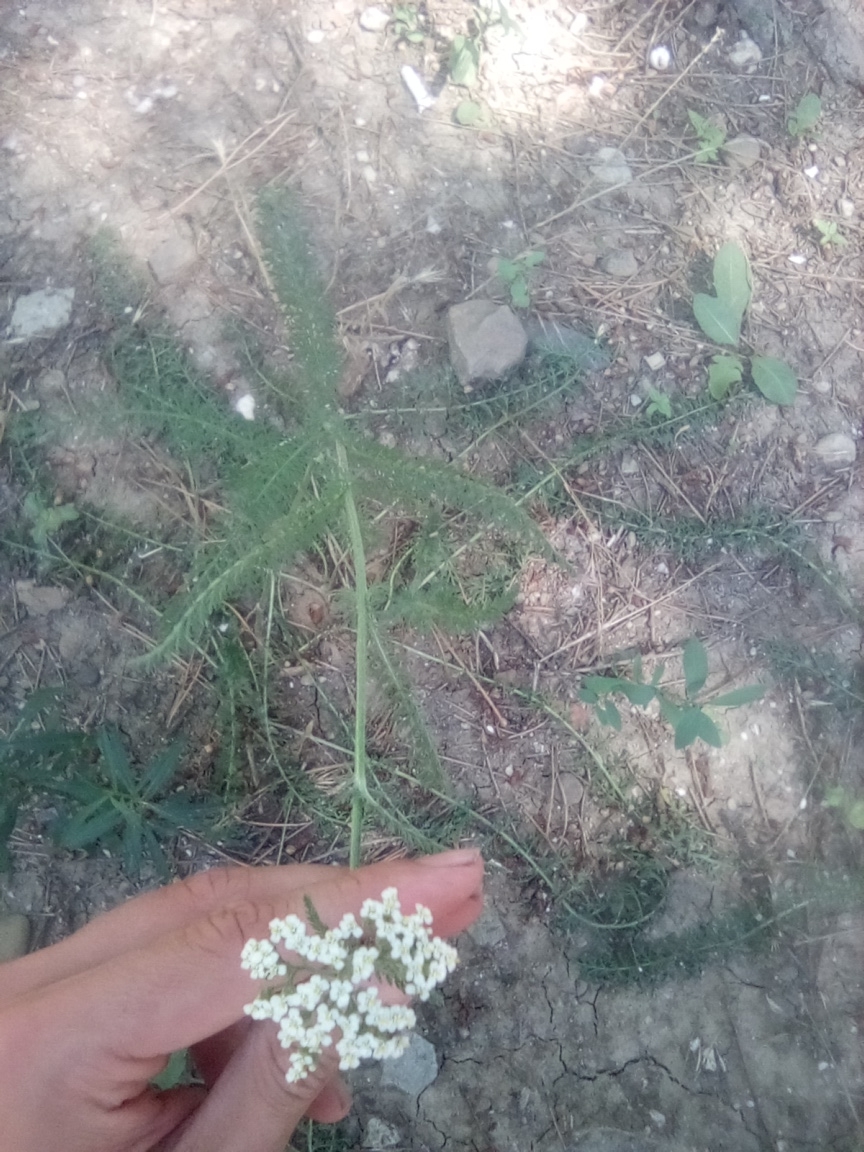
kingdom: Plantae
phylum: Tracheophyta
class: Magnoliopsida
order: Asterales
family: Asteraceae
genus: Achillea
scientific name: Achillea setacea
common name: Bristly yarrow
